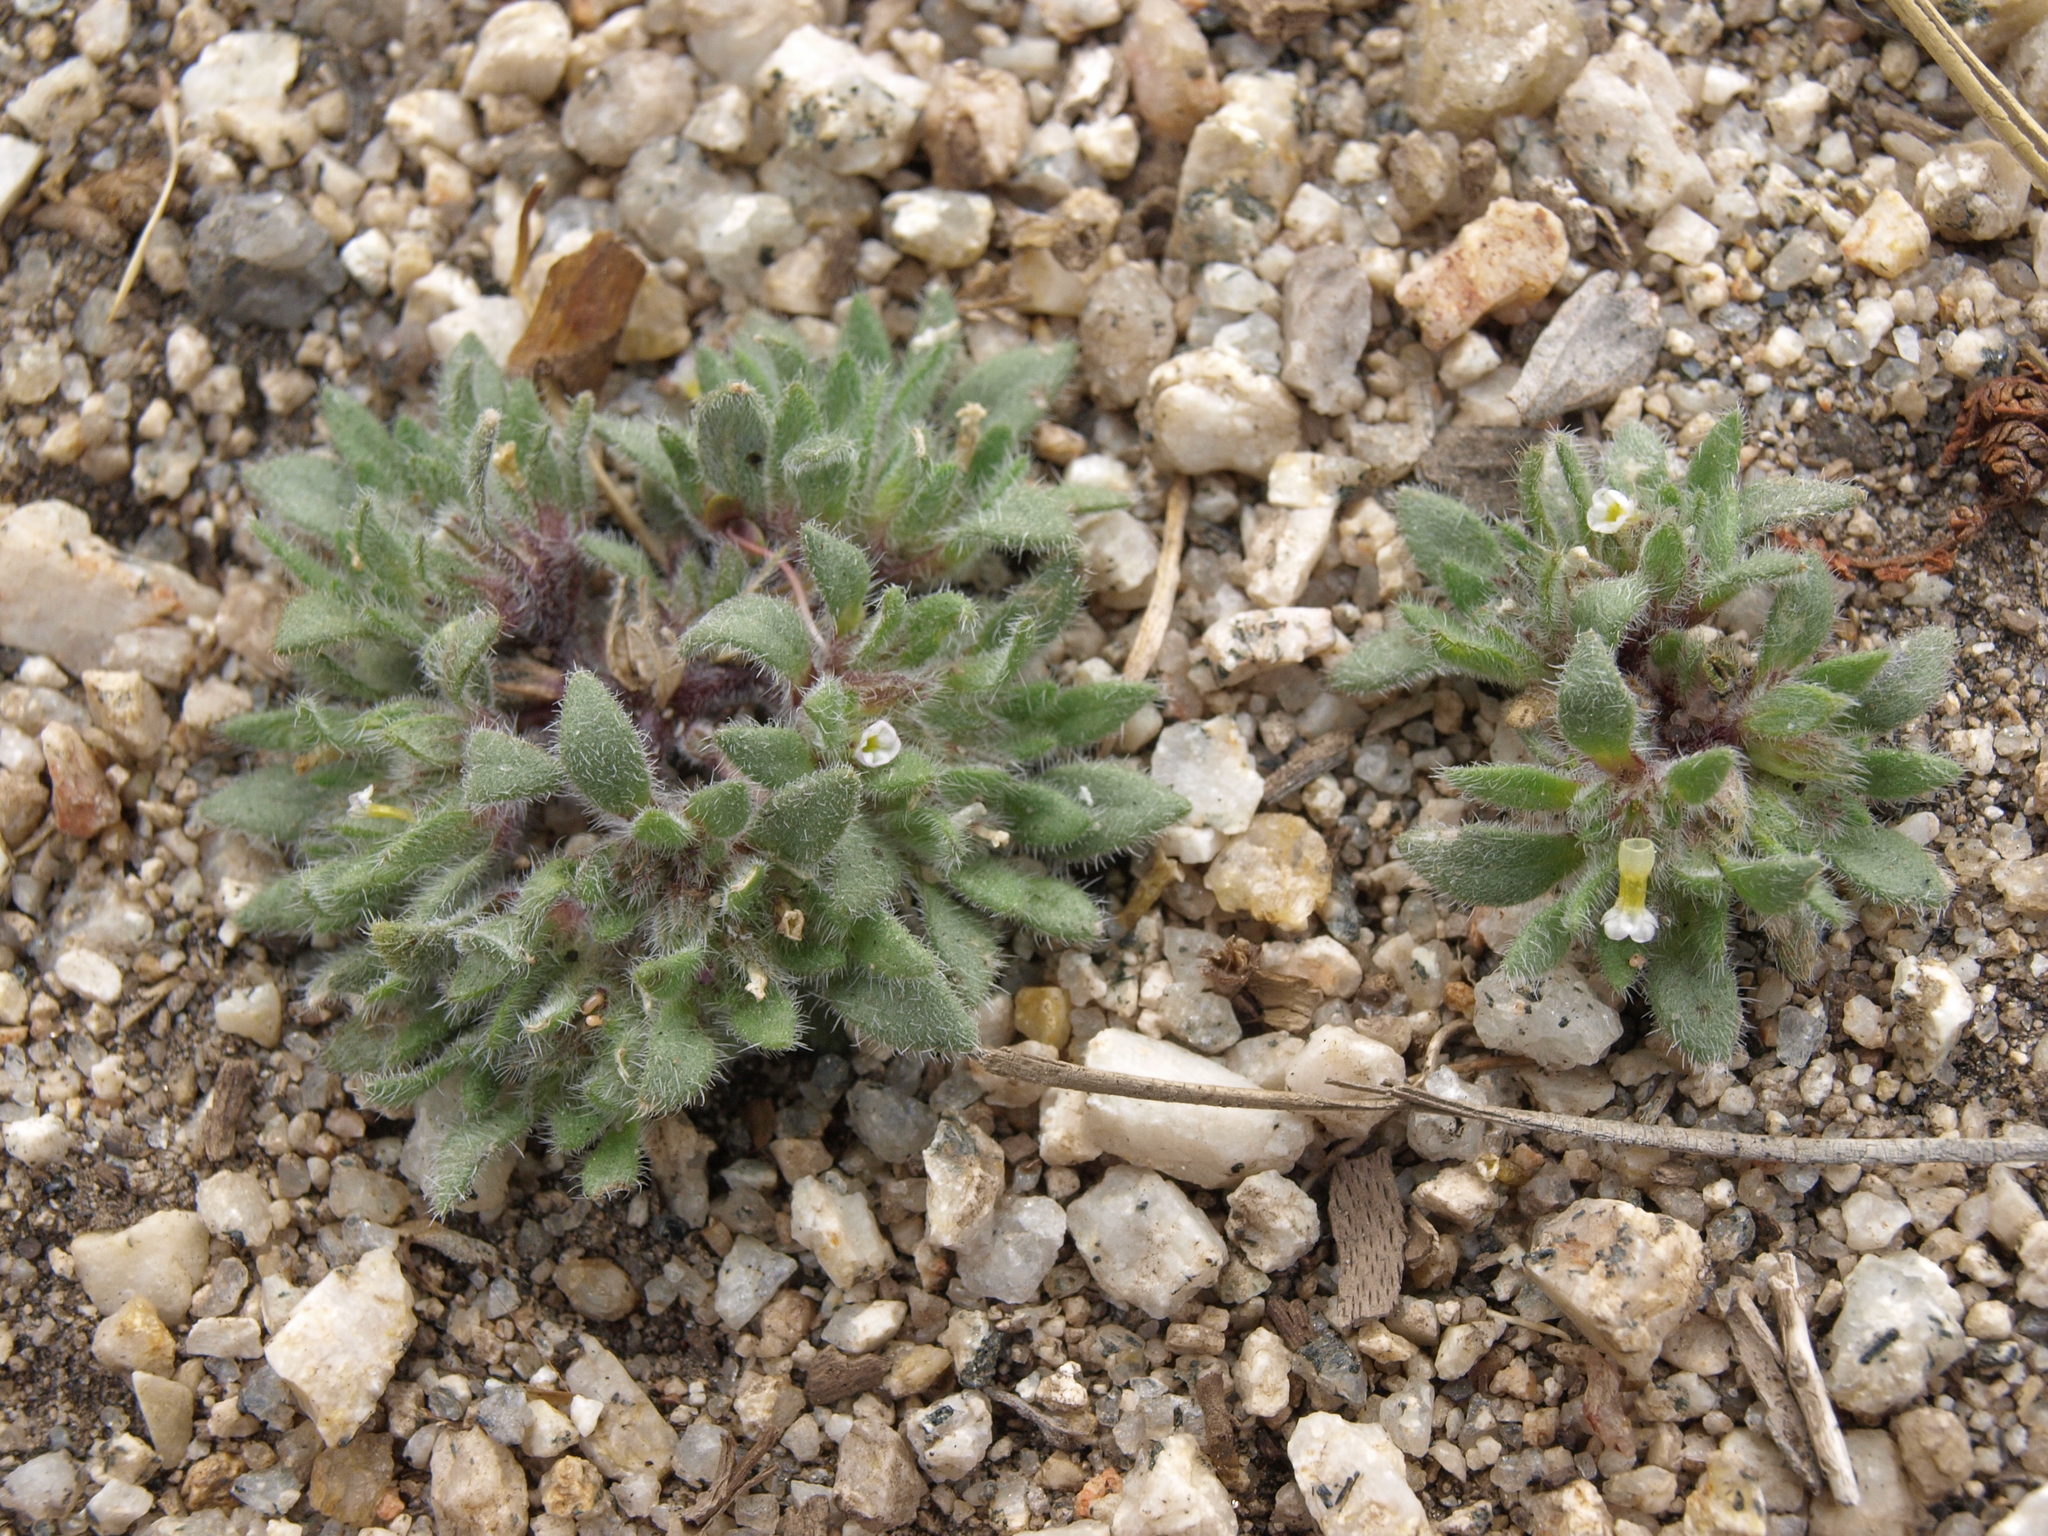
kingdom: Plantae
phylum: Tracheophyta
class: Magnoliopsida
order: Boraginales
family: Namaceae
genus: Nama
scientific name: Nama densa
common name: Leafy nama
